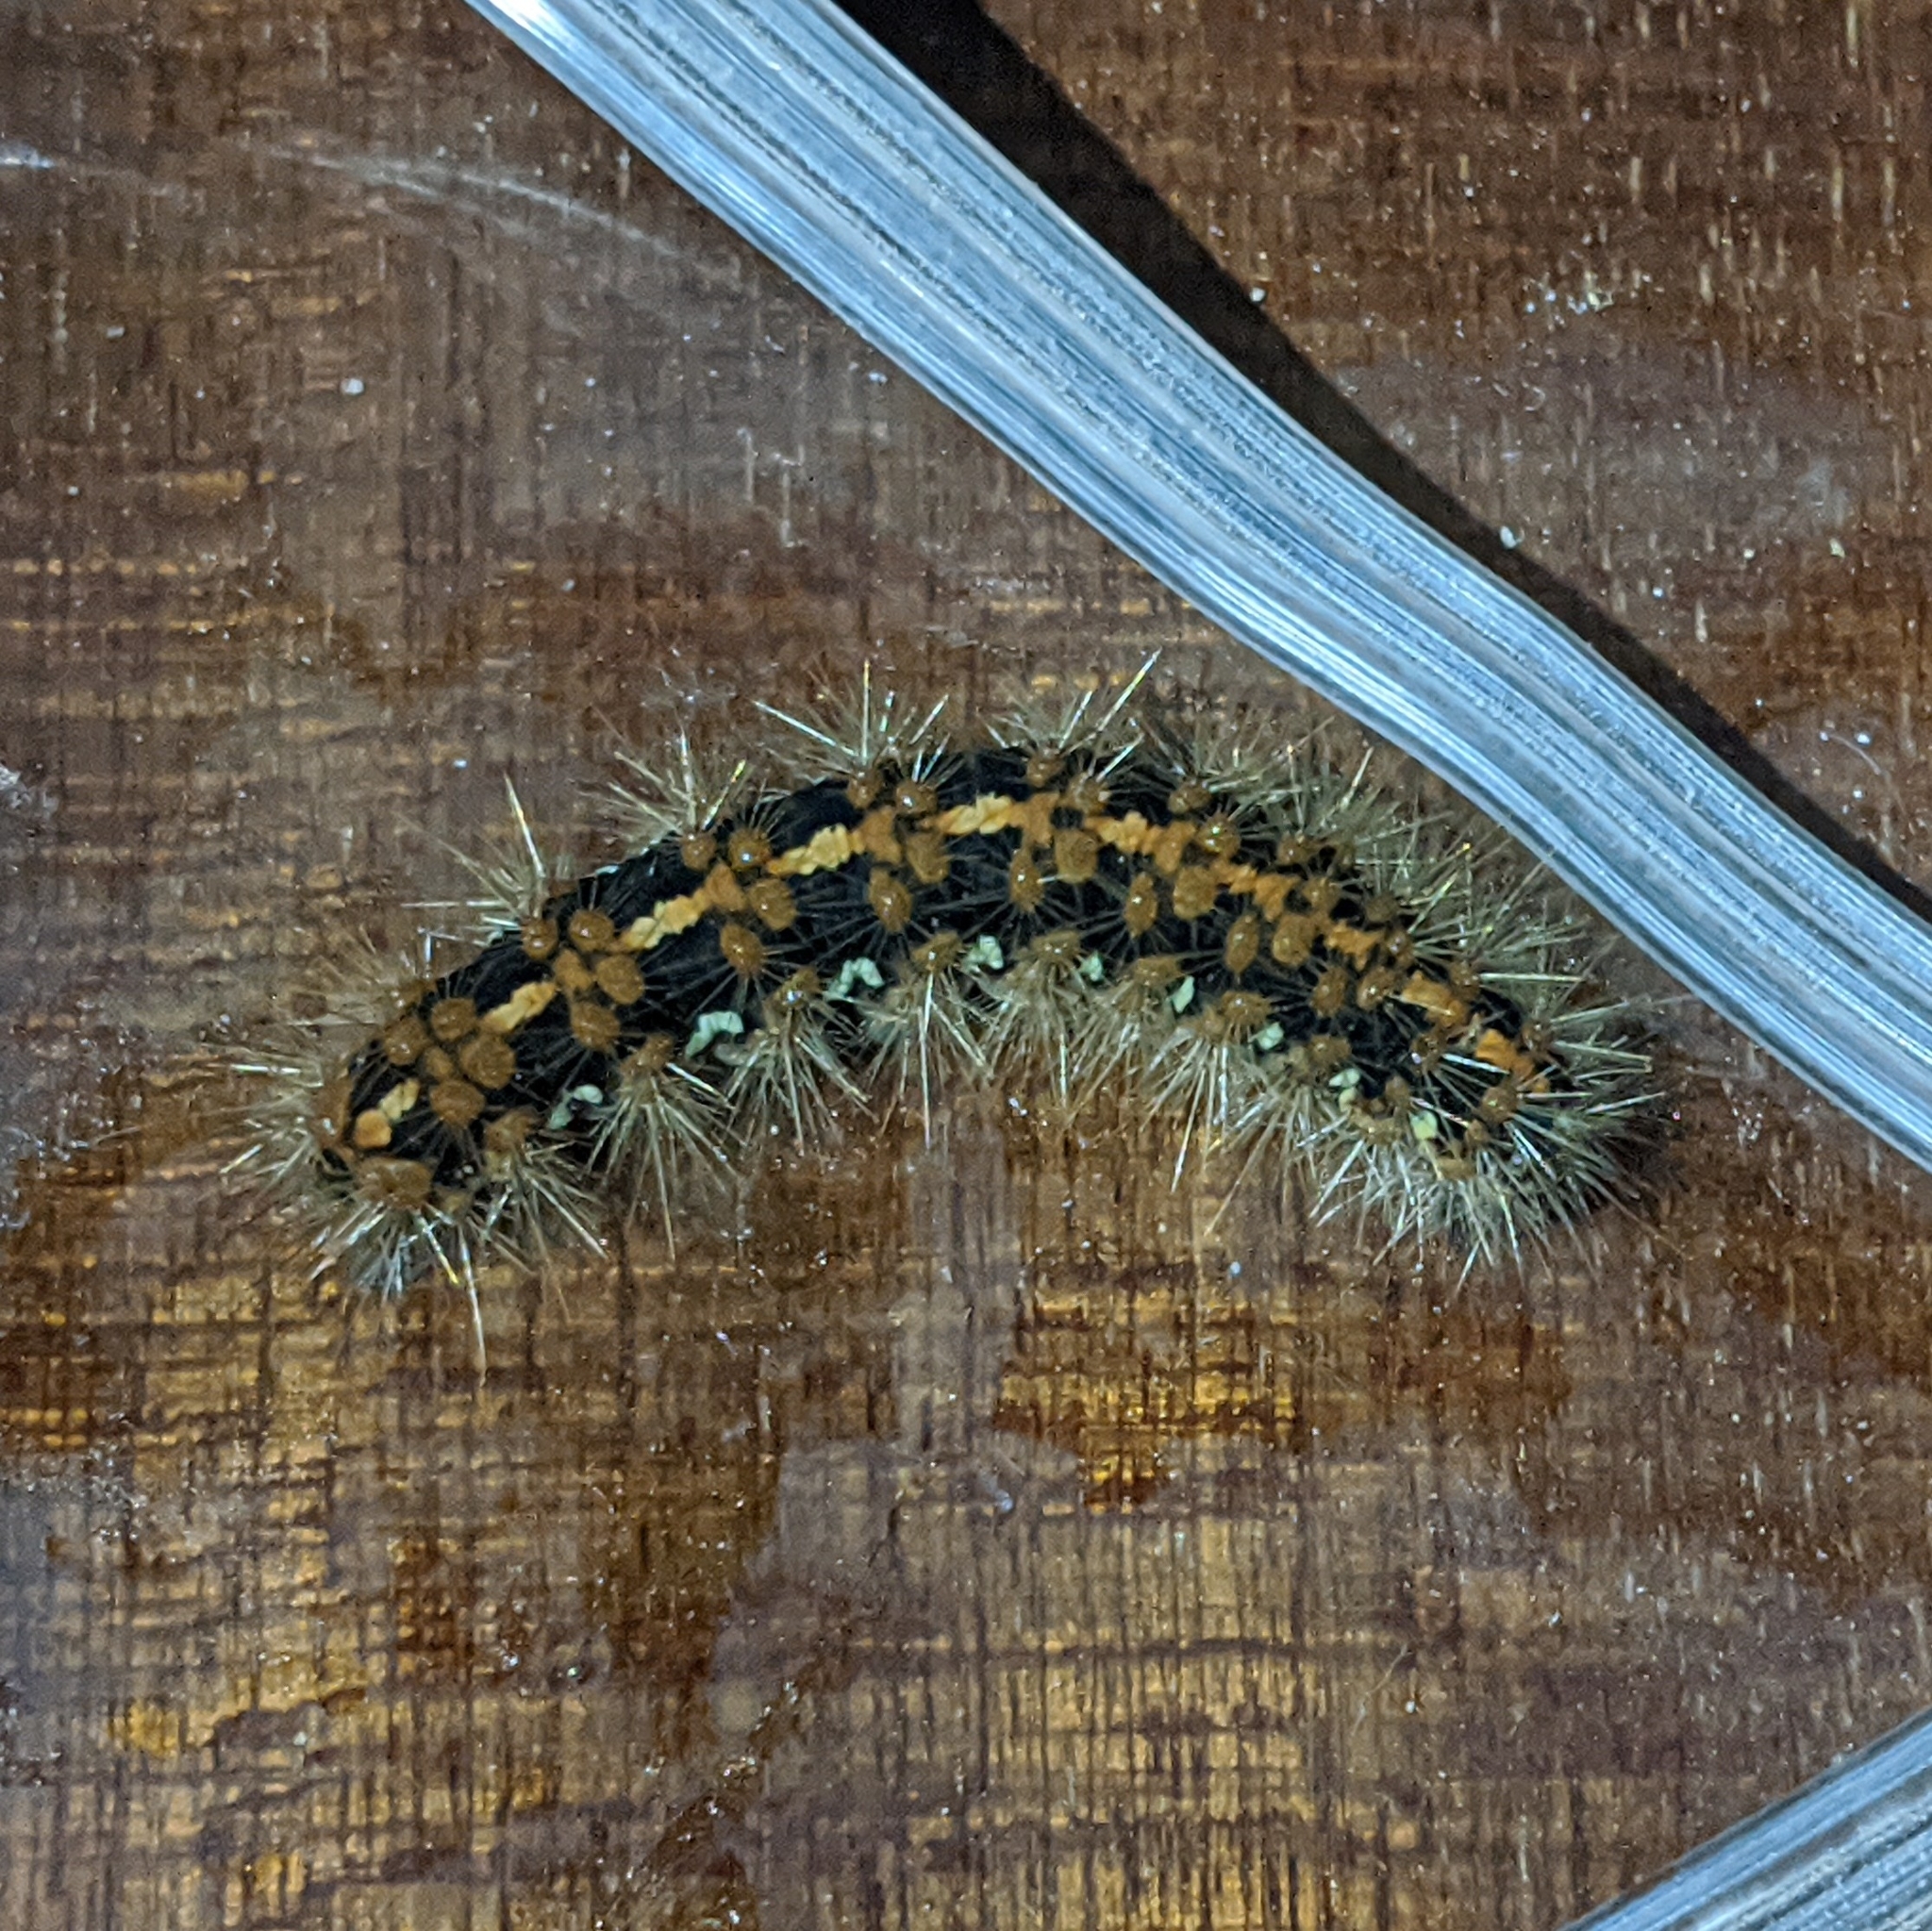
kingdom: Animalia
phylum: Arthropoda
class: Insecta
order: Lepidoptera
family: Erebidae
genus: Euplagia
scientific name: Euplagia quadripunctaria
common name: Jersey tiger
